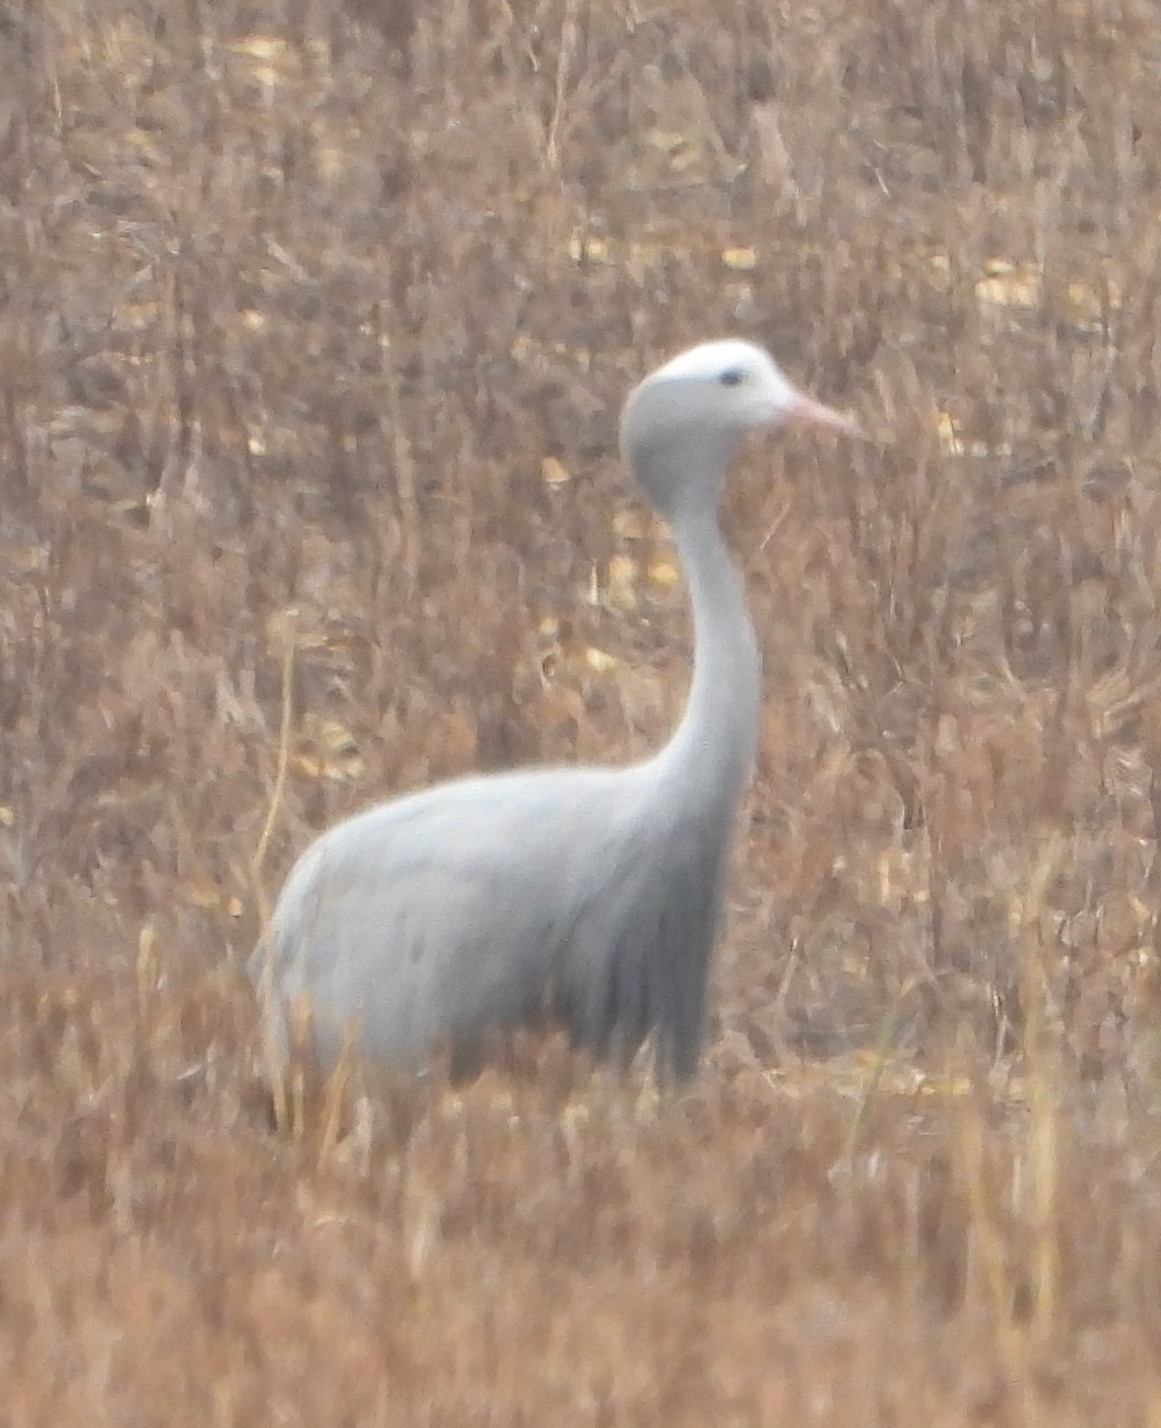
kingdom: Animalia
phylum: Chordata
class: Aves
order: Gruiformes
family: Gruidae
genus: Anthropoides
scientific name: Anthropoides paradiseus
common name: Blue crane
